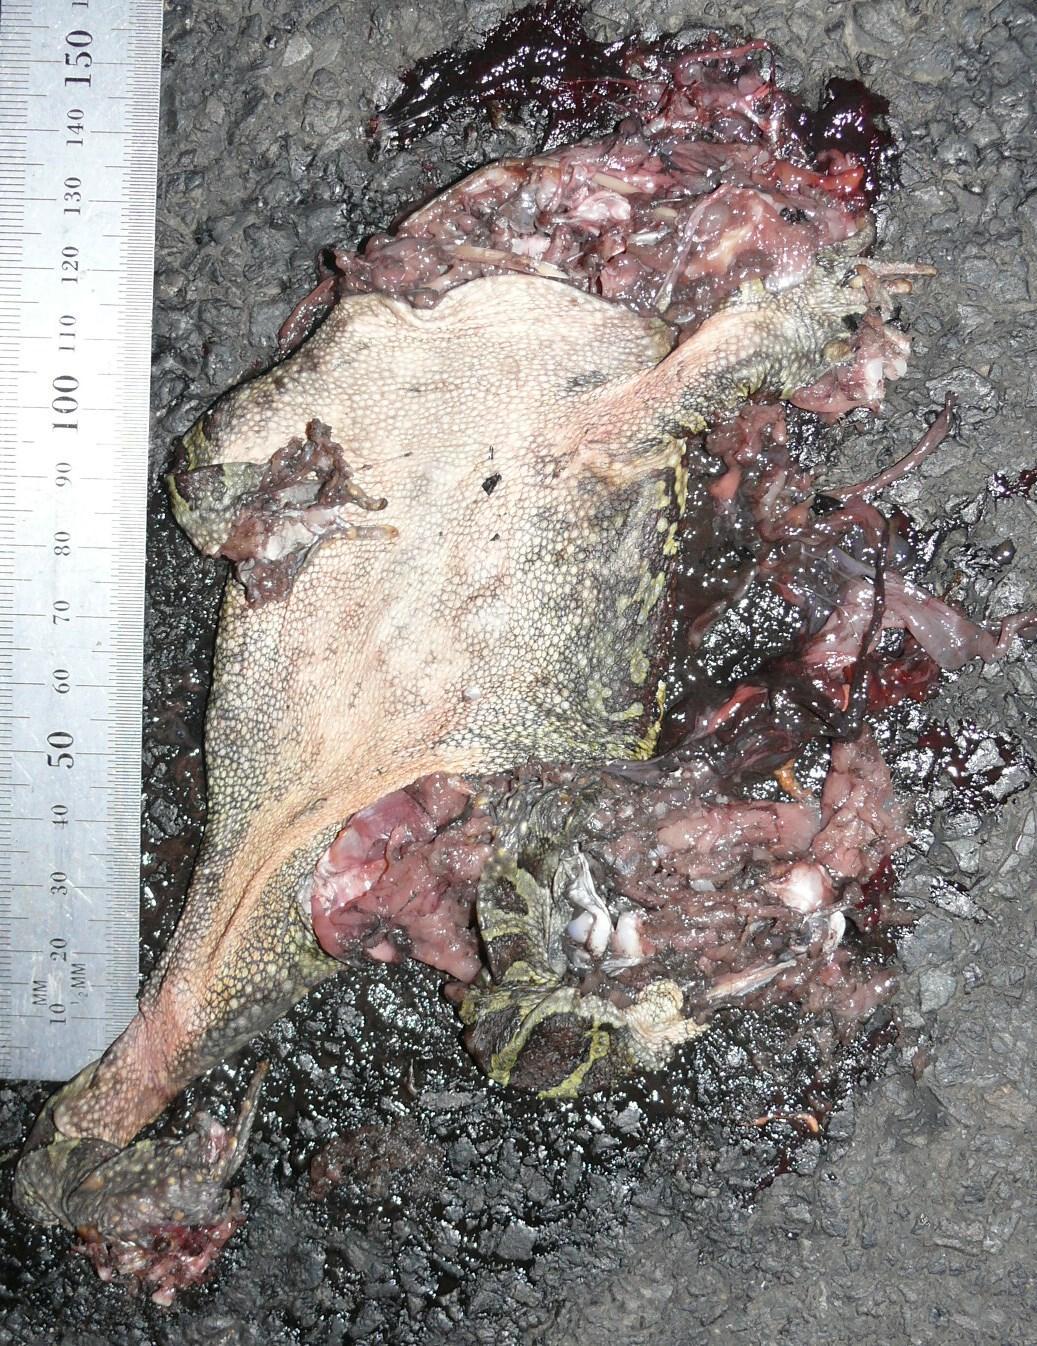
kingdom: Animalia
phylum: Chordata
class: Amphibia
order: Anura
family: Bufonidae
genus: Sclerophrys
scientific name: Sclerophrys pantherina
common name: Panther toad
